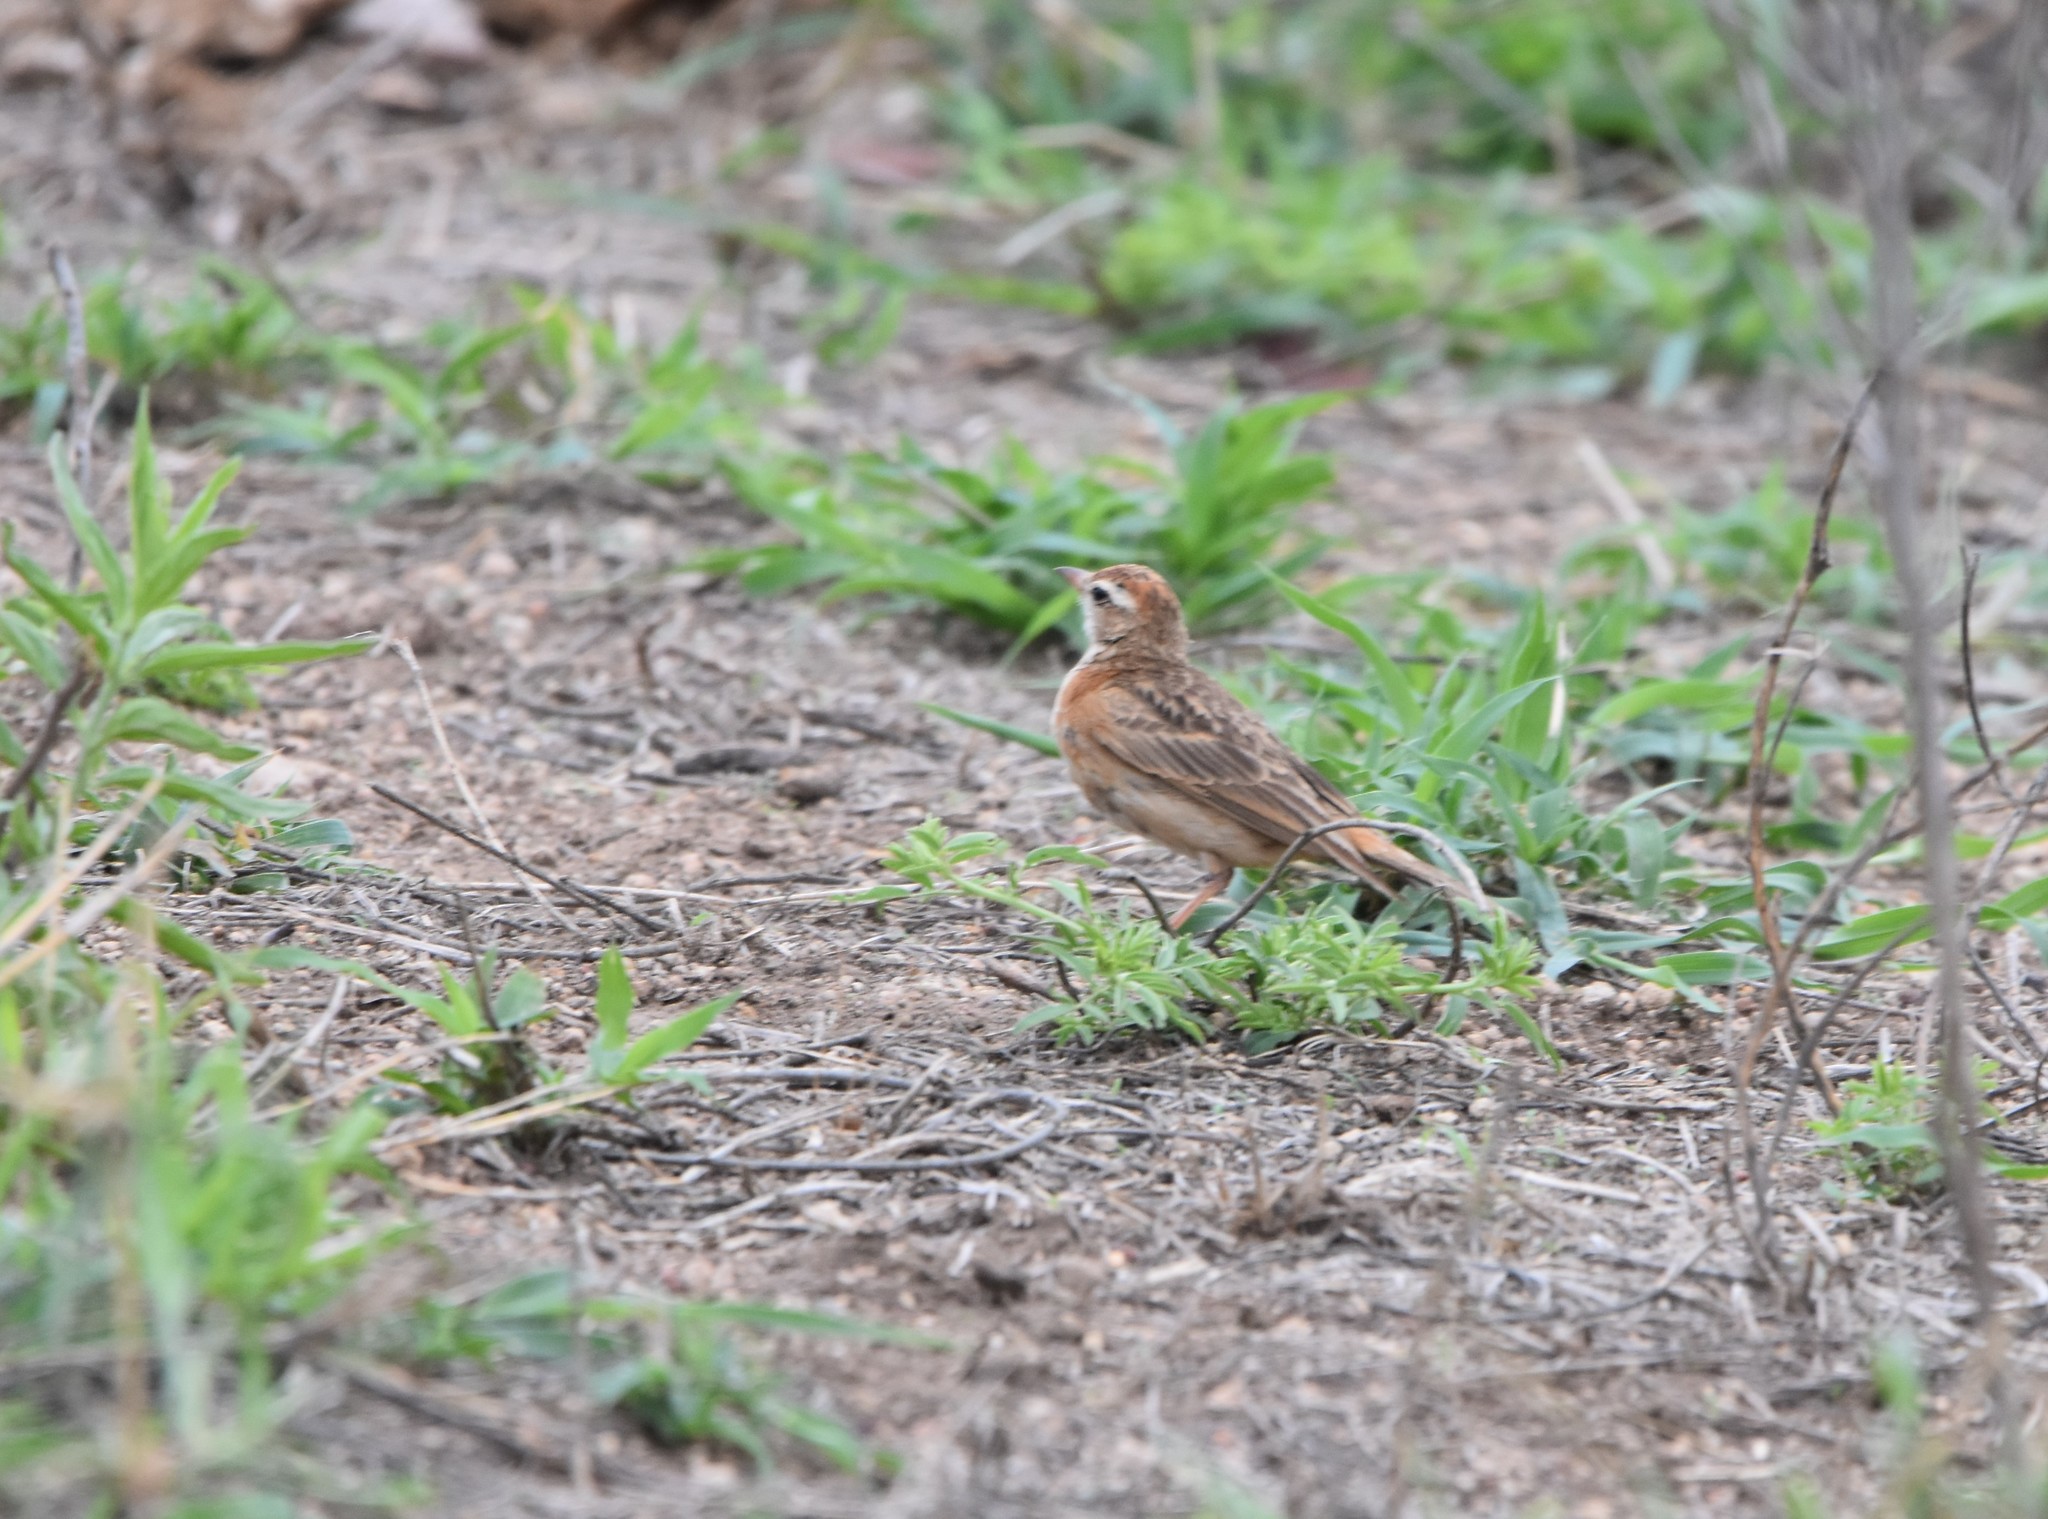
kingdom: Animalia
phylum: Chordata
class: Aves
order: Passeriformes
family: Alaudidae
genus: Calandrella
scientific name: Calandrella cinerea
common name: Red-capped lark
